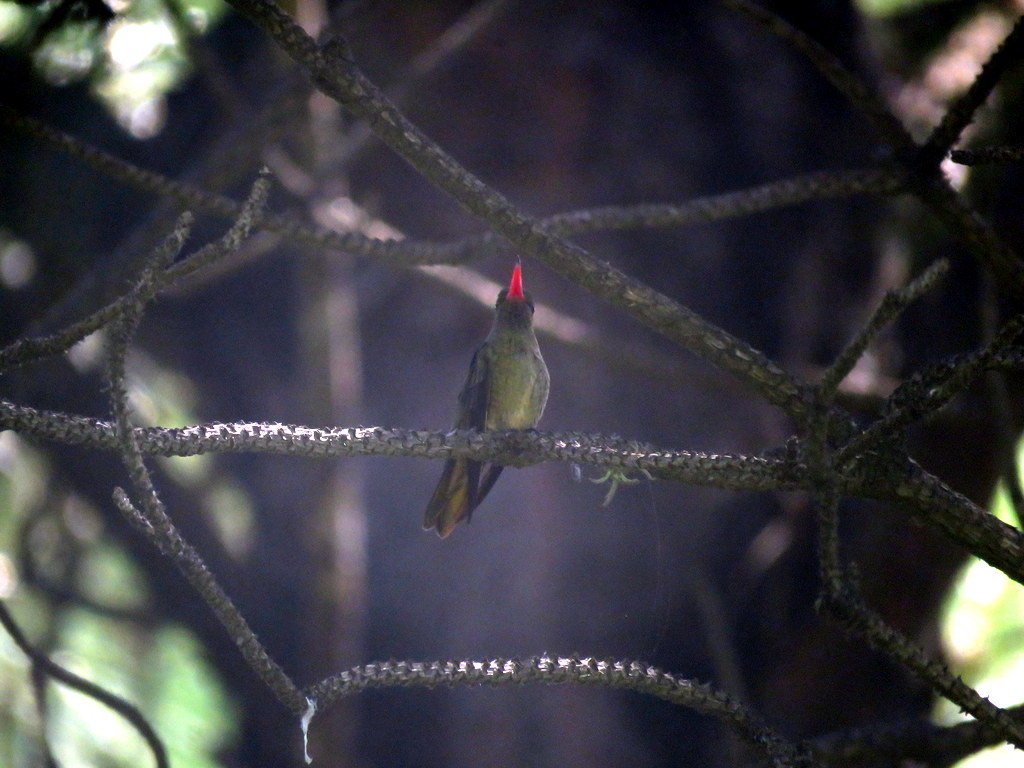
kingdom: Animalia
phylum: Chordata
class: Aves
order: Apodiformes
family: Trochilidae
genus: Hylocharis
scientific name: Hylocharis chrysura
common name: Gilded sapphire
